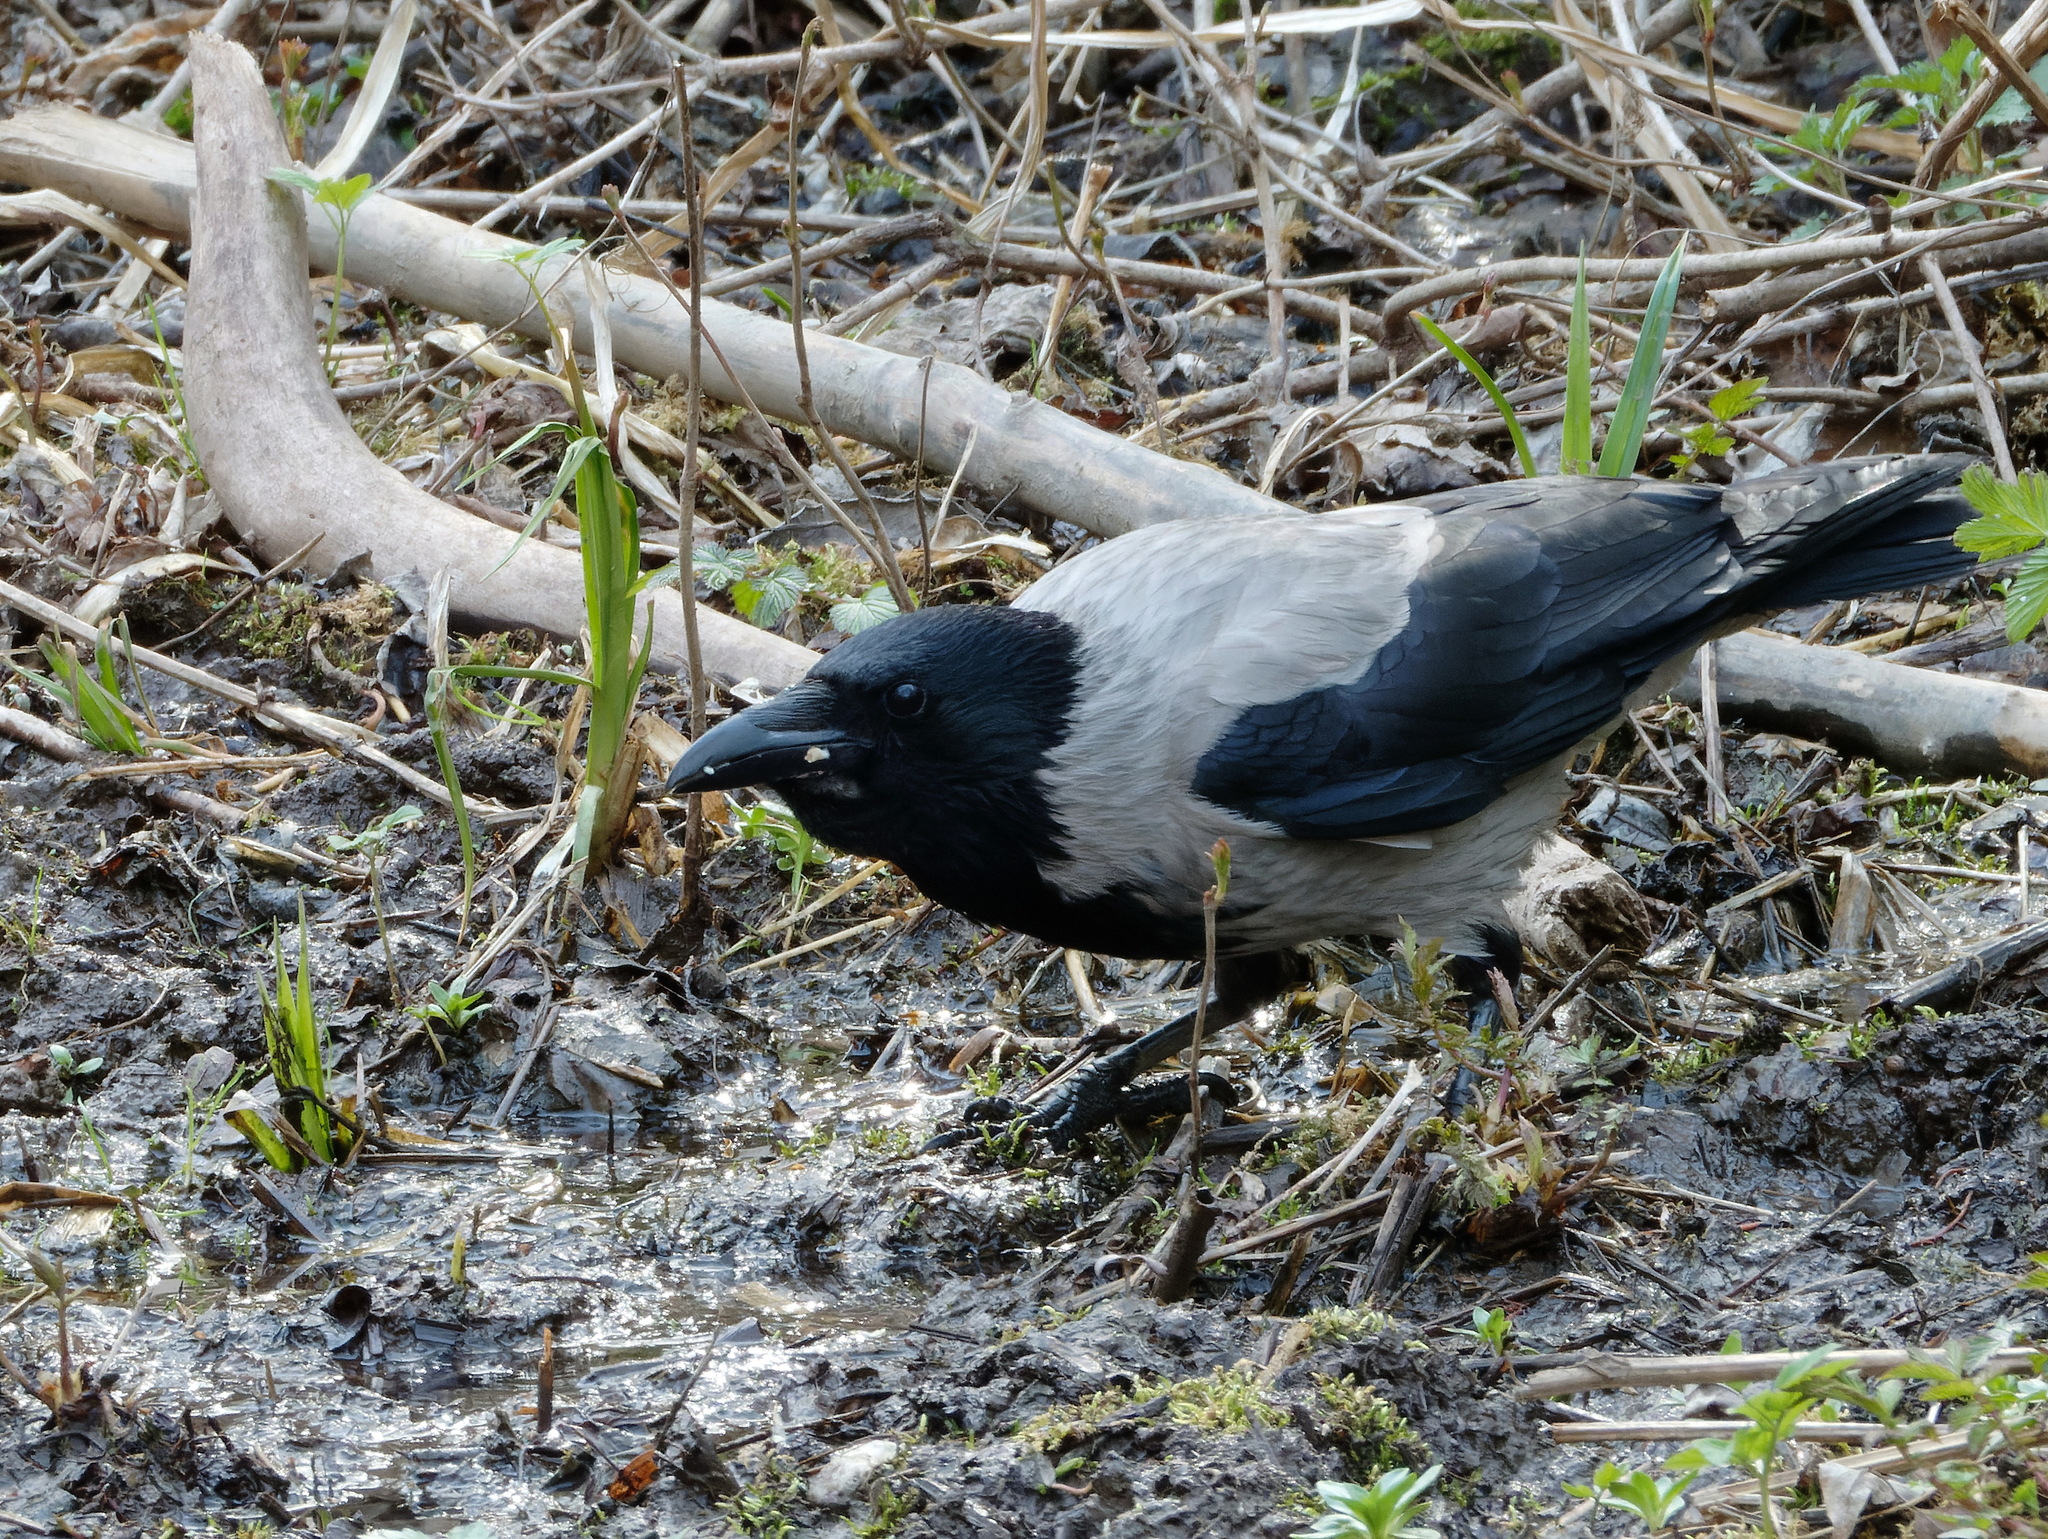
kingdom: Animalia
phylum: Chordata
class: Aves
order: Passeriformes
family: Corvidae
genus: Corvus
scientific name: Corvus cornix
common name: Hooded crow
